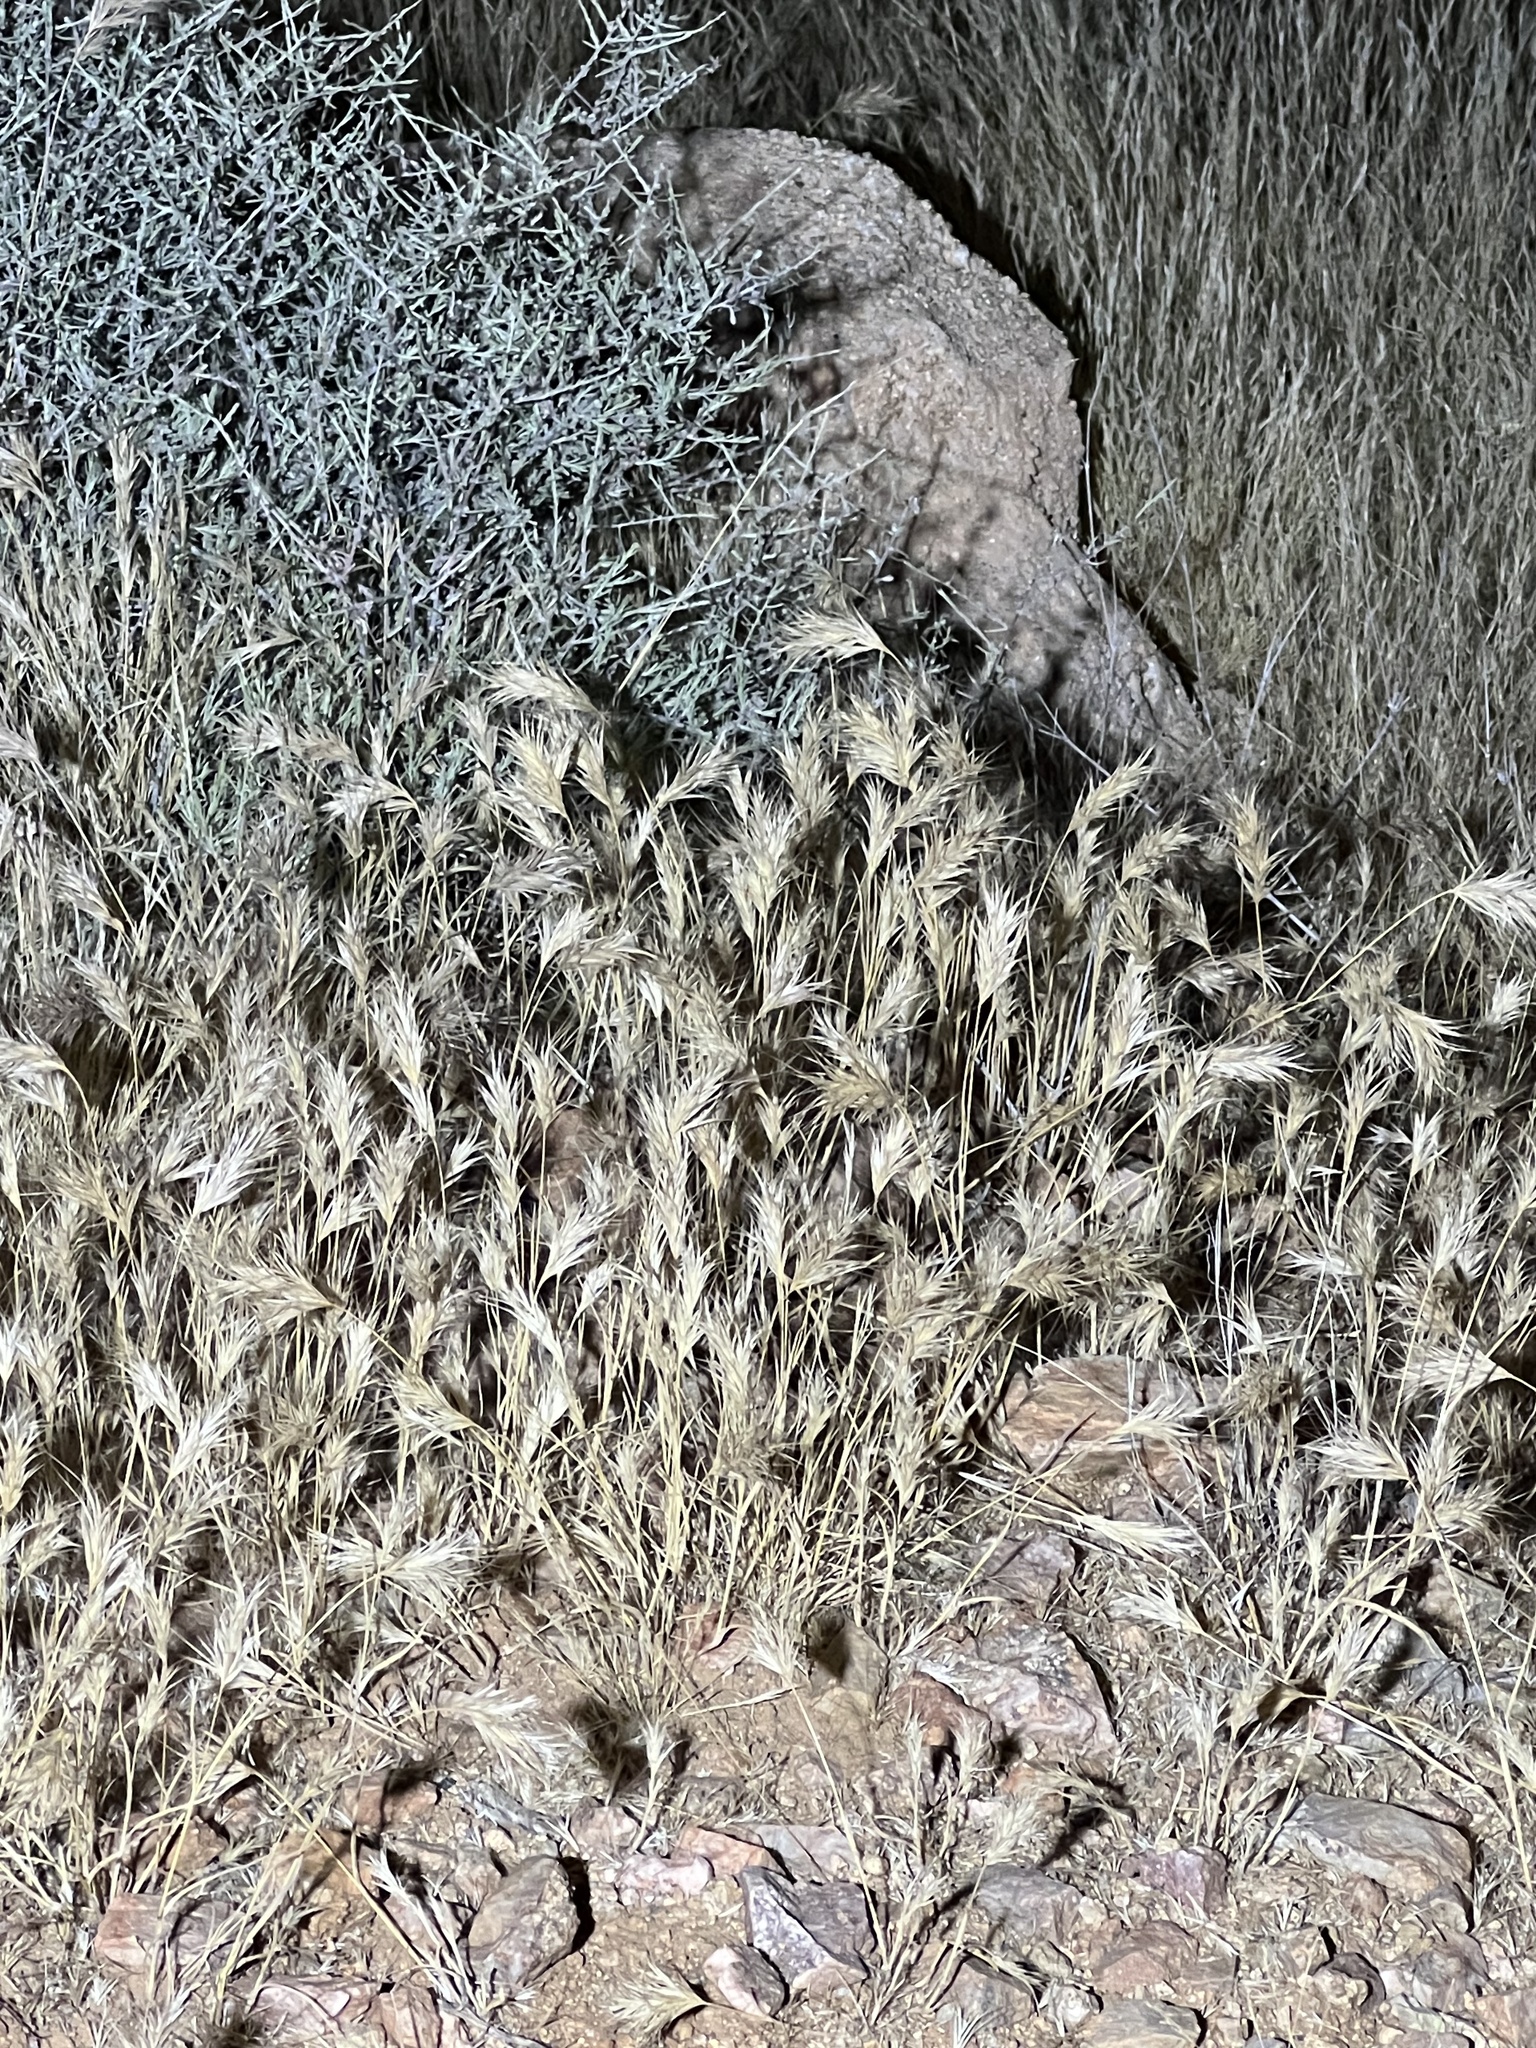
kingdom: Plantae
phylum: Tracheophyta
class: Liliopsida
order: Poales
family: Poaceae
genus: Bromus
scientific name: Bromus rubens
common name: Red brome
